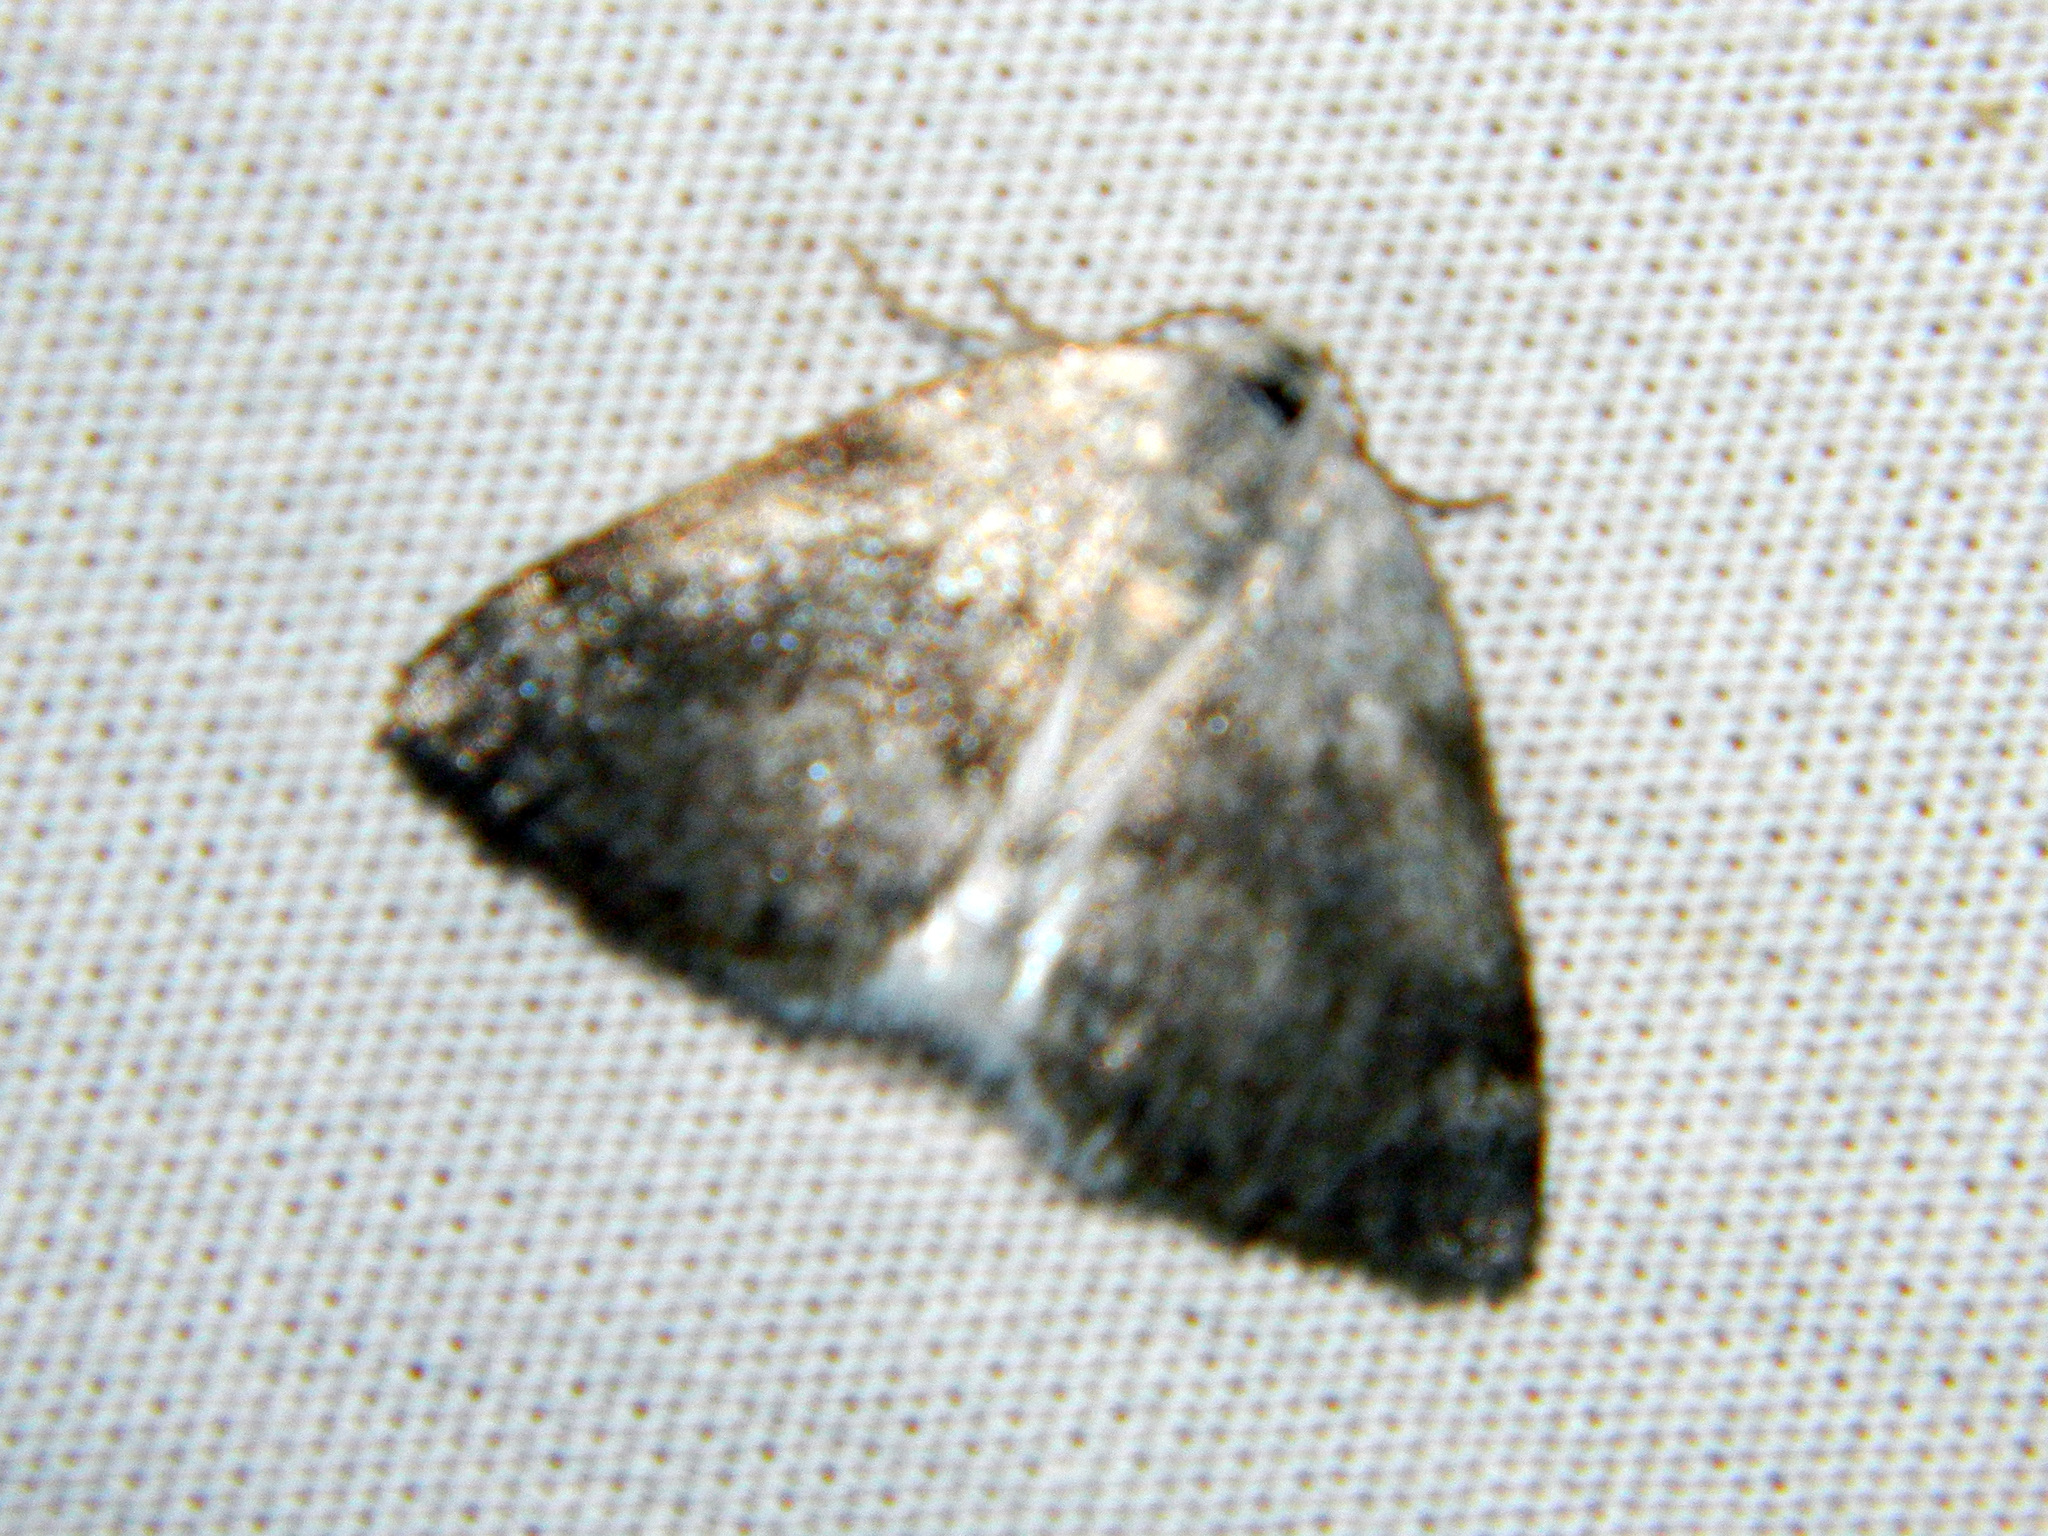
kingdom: Animalia
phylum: Arthropoda
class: Insecta
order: Lepidoptera
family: Geometridae
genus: Lomographa
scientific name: Lomographa semiclarata
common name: Bluish spring moth
